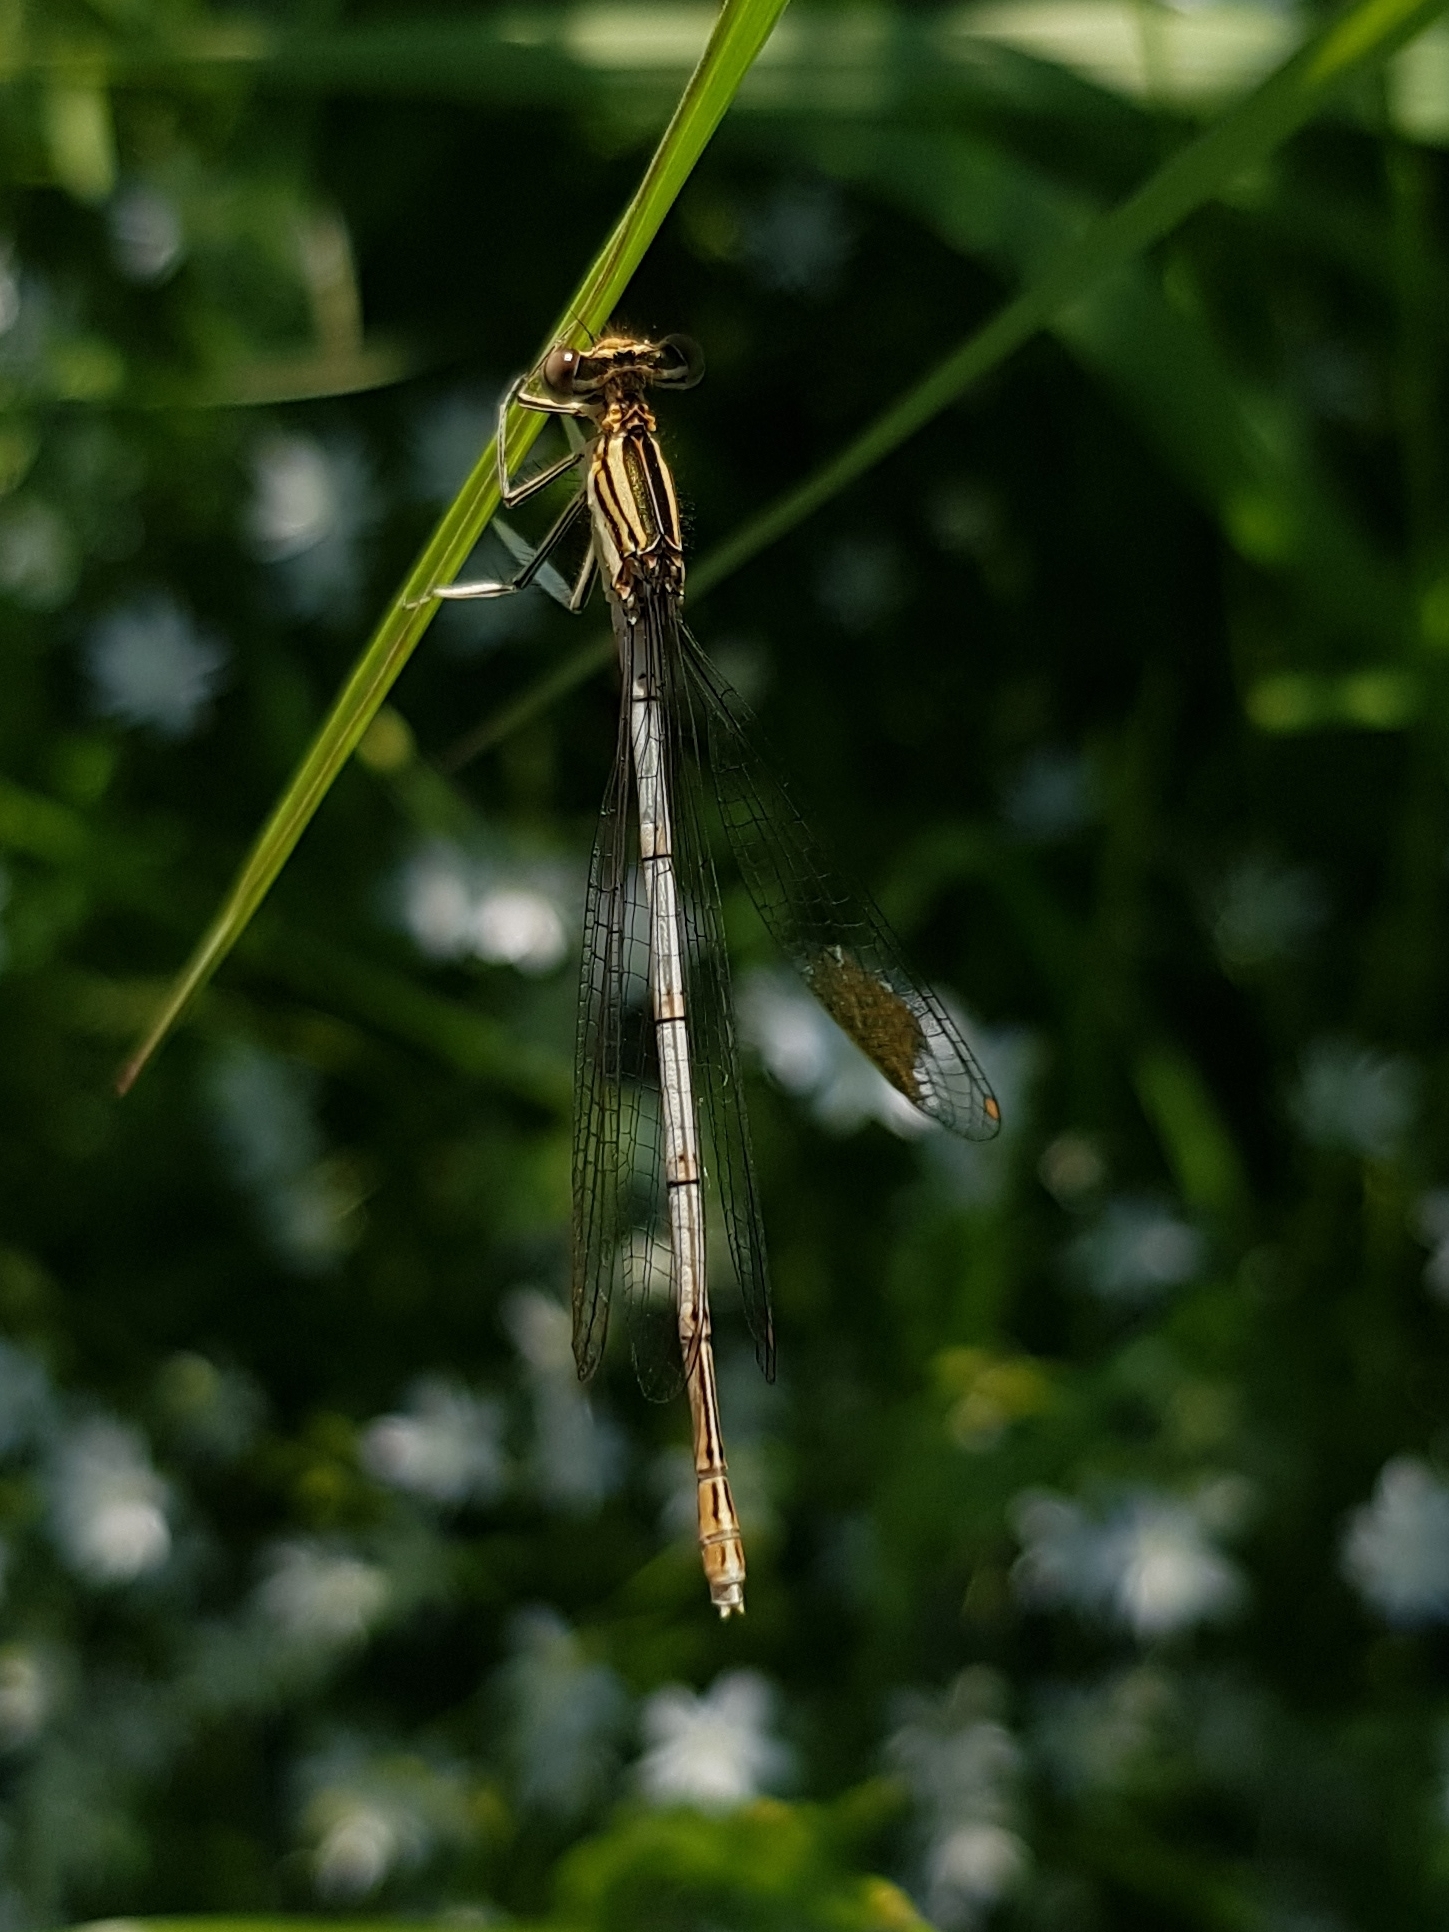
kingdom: Animalia
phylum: Arthropoda
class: Insecta
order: Odonata
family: Platycnemididae
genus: Platycnemis
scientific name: Platycnemis pennipes
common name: White-legged damselfly
